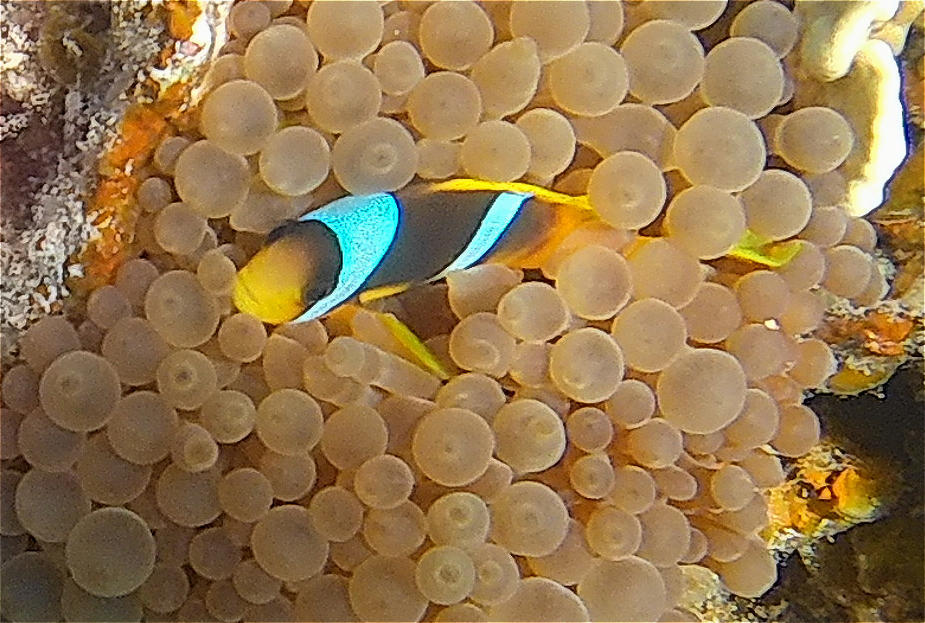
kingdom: Animalia
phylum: Chordata
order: Perciformes
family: Pomacentridae
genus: Amphiprion
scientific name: Amphiprion bicinctus
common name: Two-banded anemonefish
